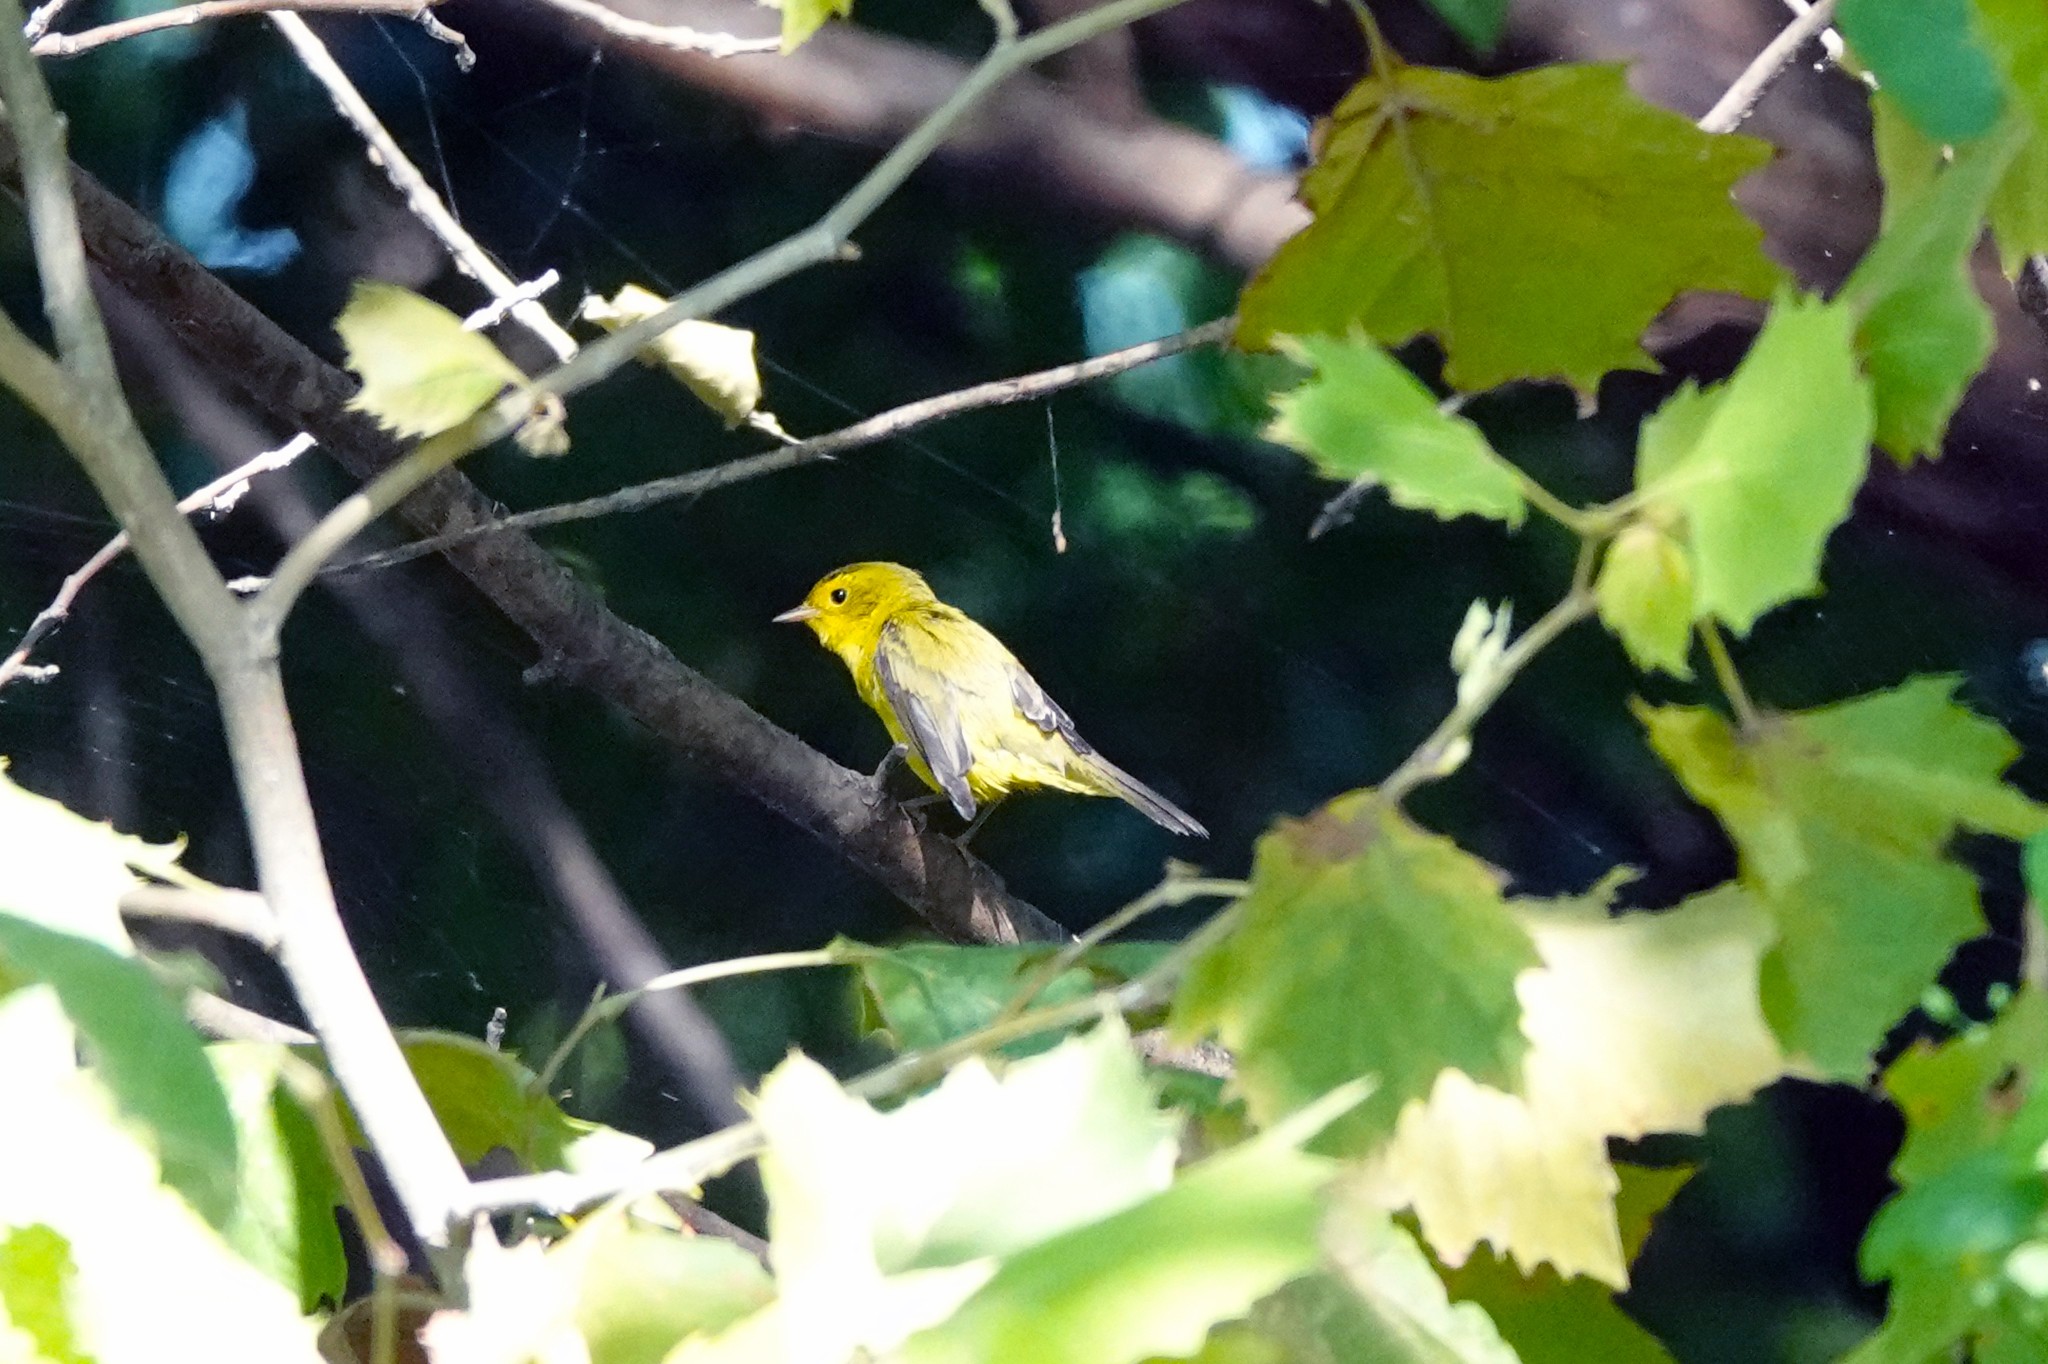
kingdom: Animalia
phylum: Chordata
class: Aves
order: Passeriformes
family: Parulidae
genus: Setophaga
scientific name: Setophaga petechia
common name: Yellow warbler
